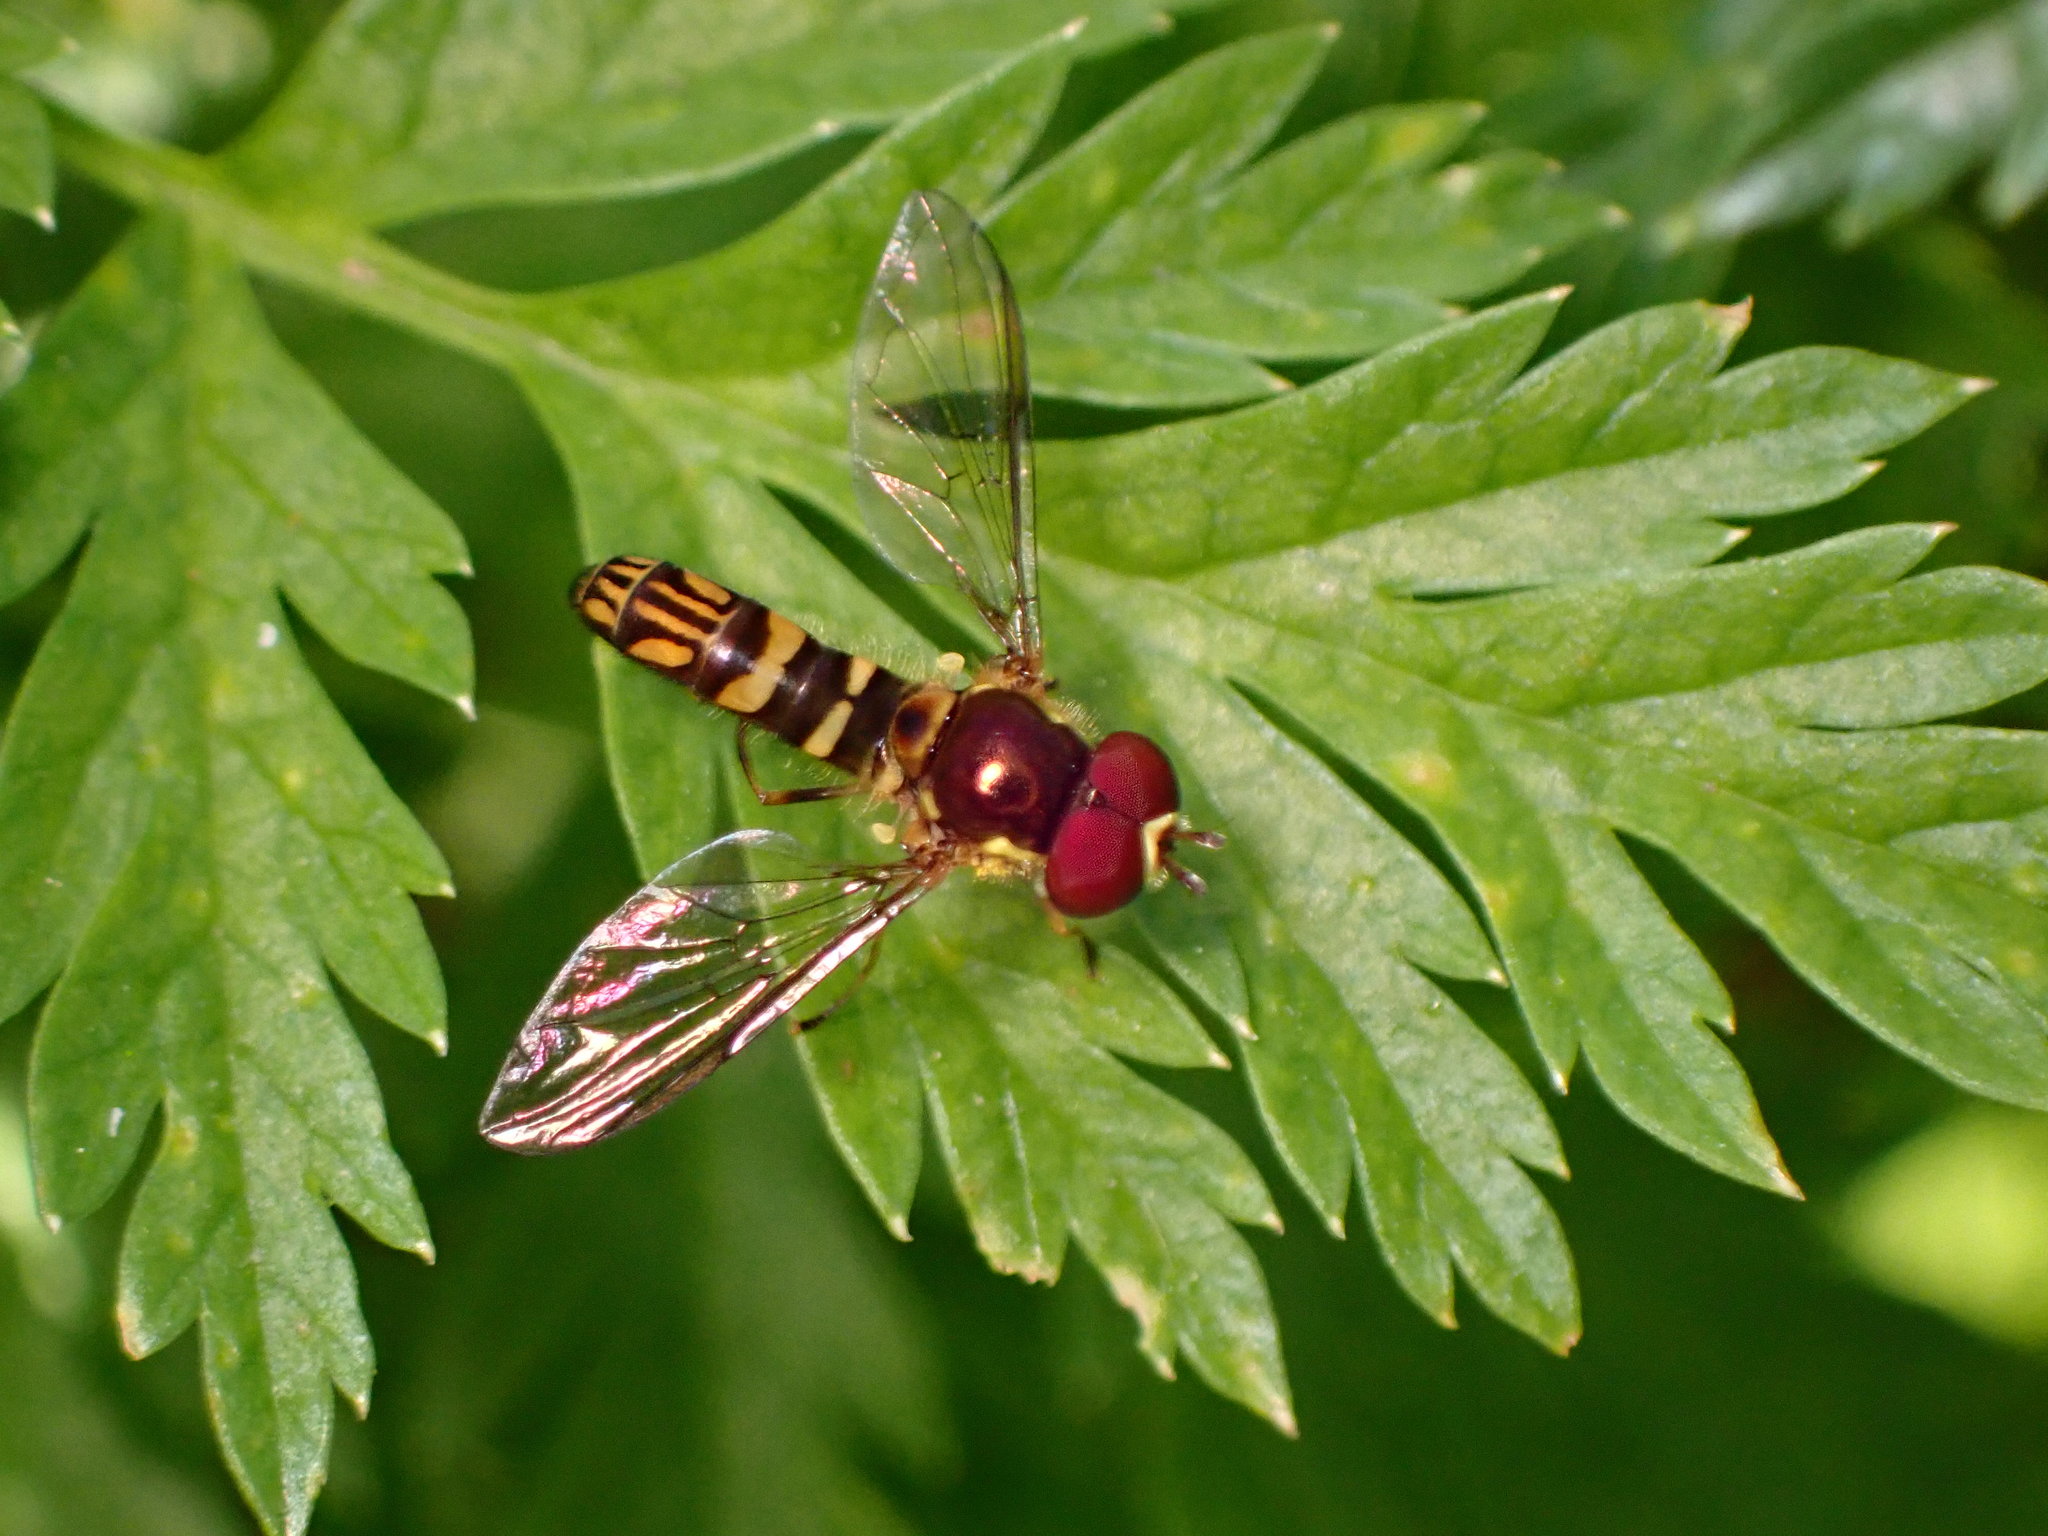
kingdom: Animalia
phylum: Arthropoda
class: Insecta
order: Diptera
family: Syrphidae
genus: Allograpta
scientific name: Allograpta obliqua
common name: Common oblique syrphid
